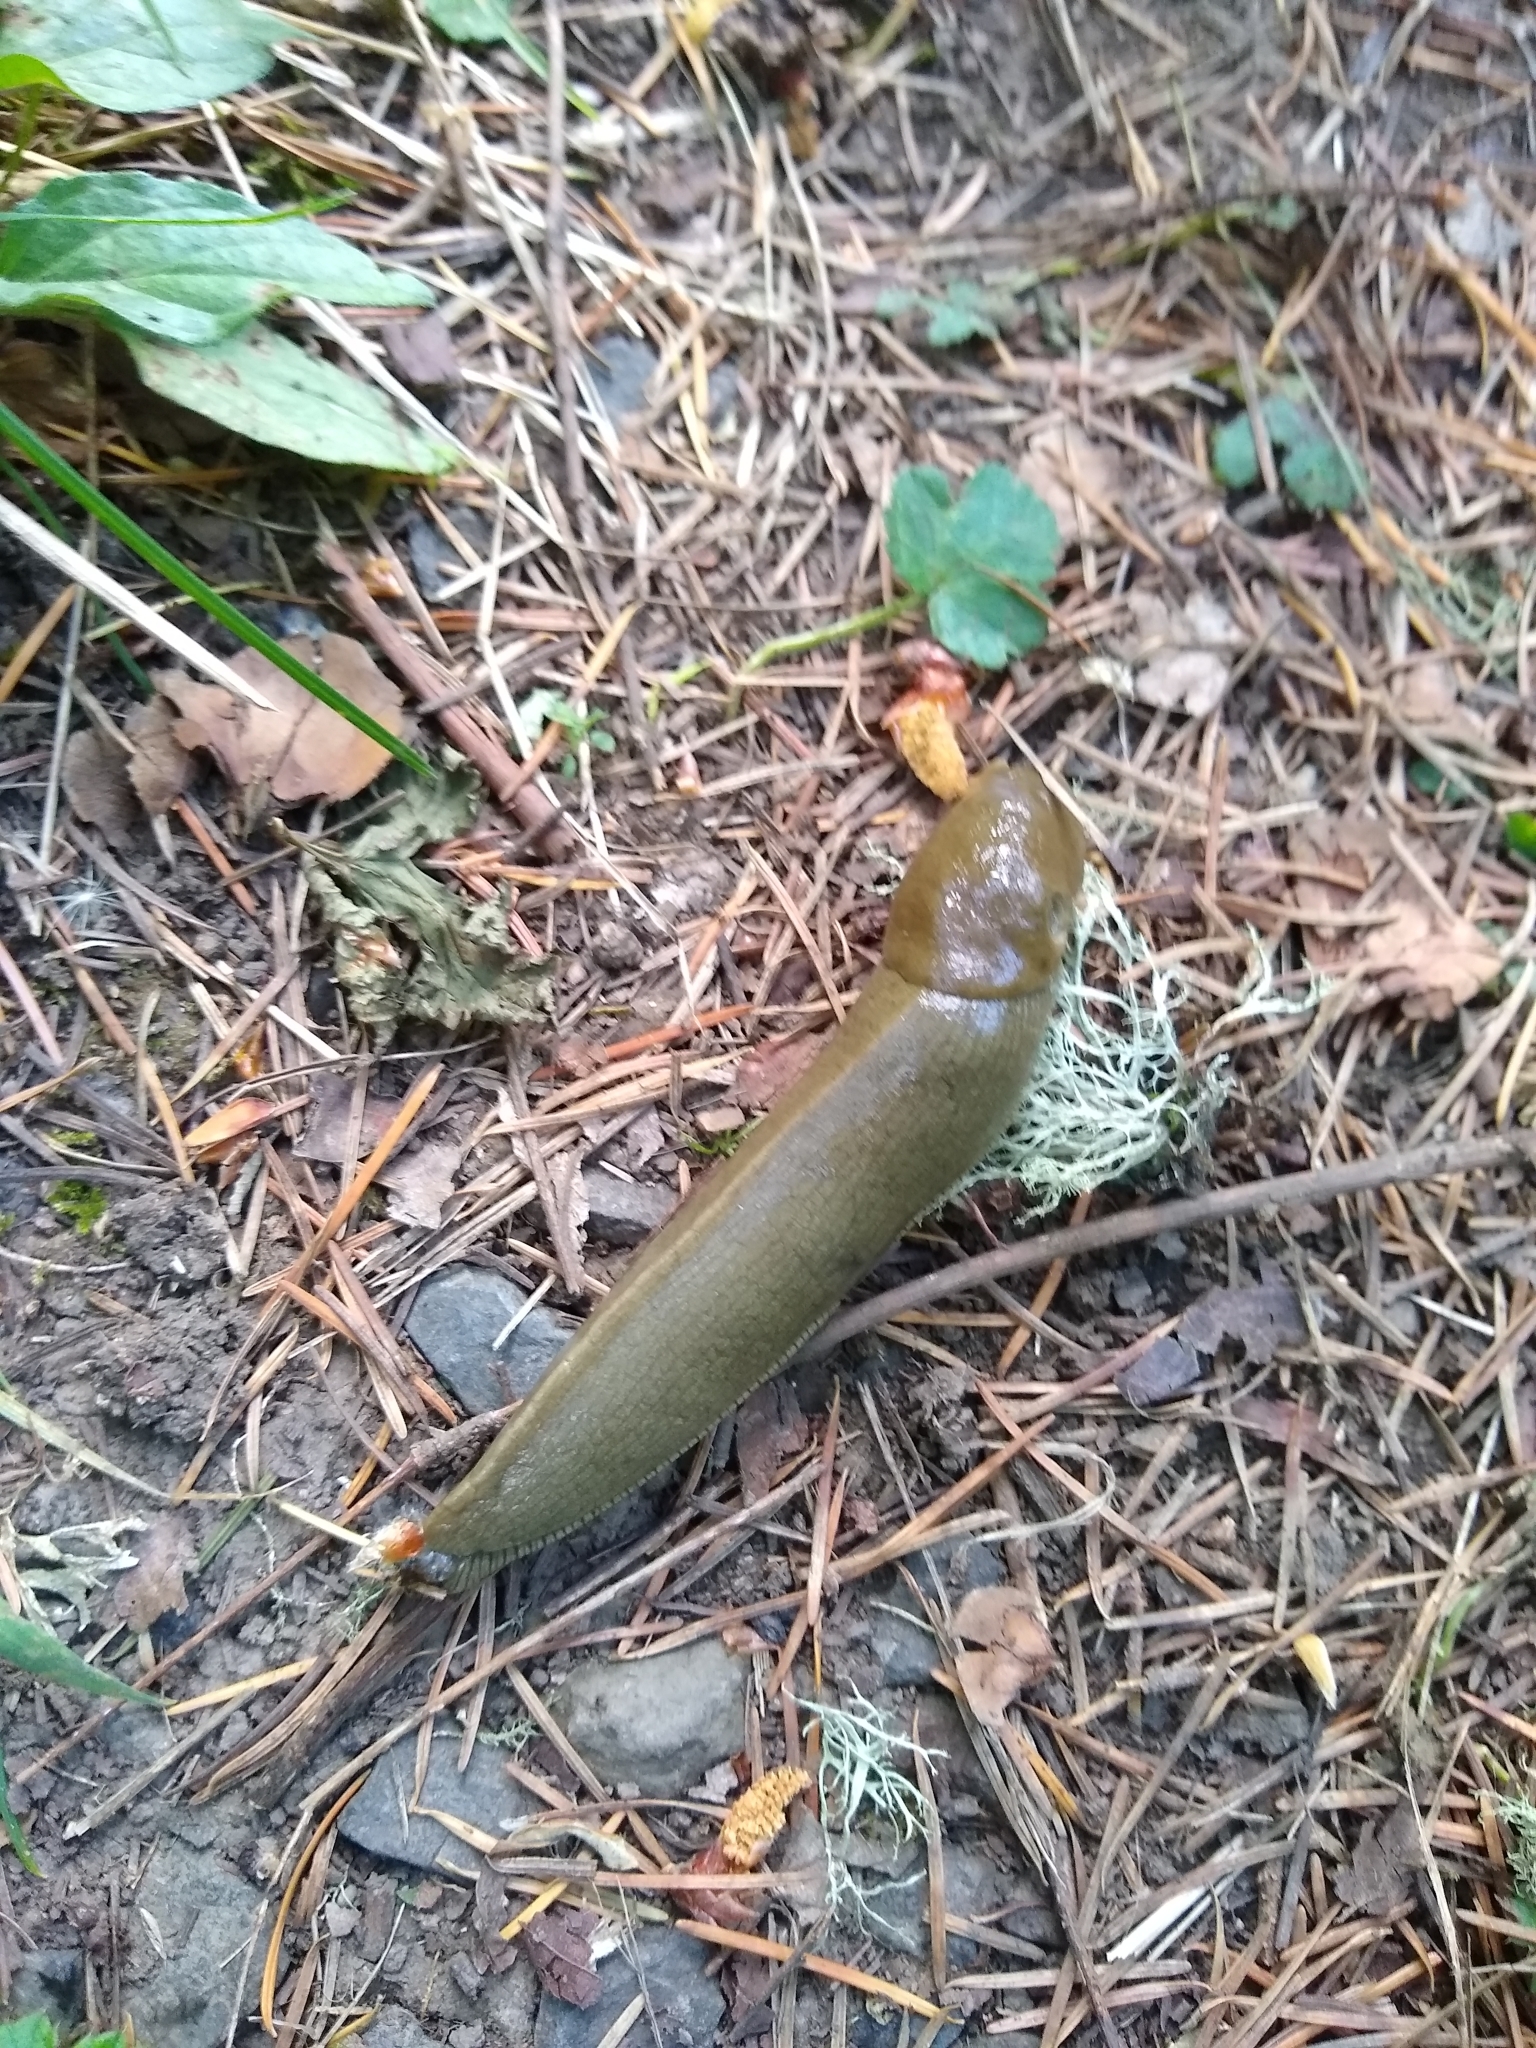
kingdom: Animalia
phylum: Mollusca
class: Gastropoda
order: Stylommatophora
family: Ariolimacidae
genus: Ariolimax
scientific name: Ariolimax columbianus
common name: Pacific banana slug
